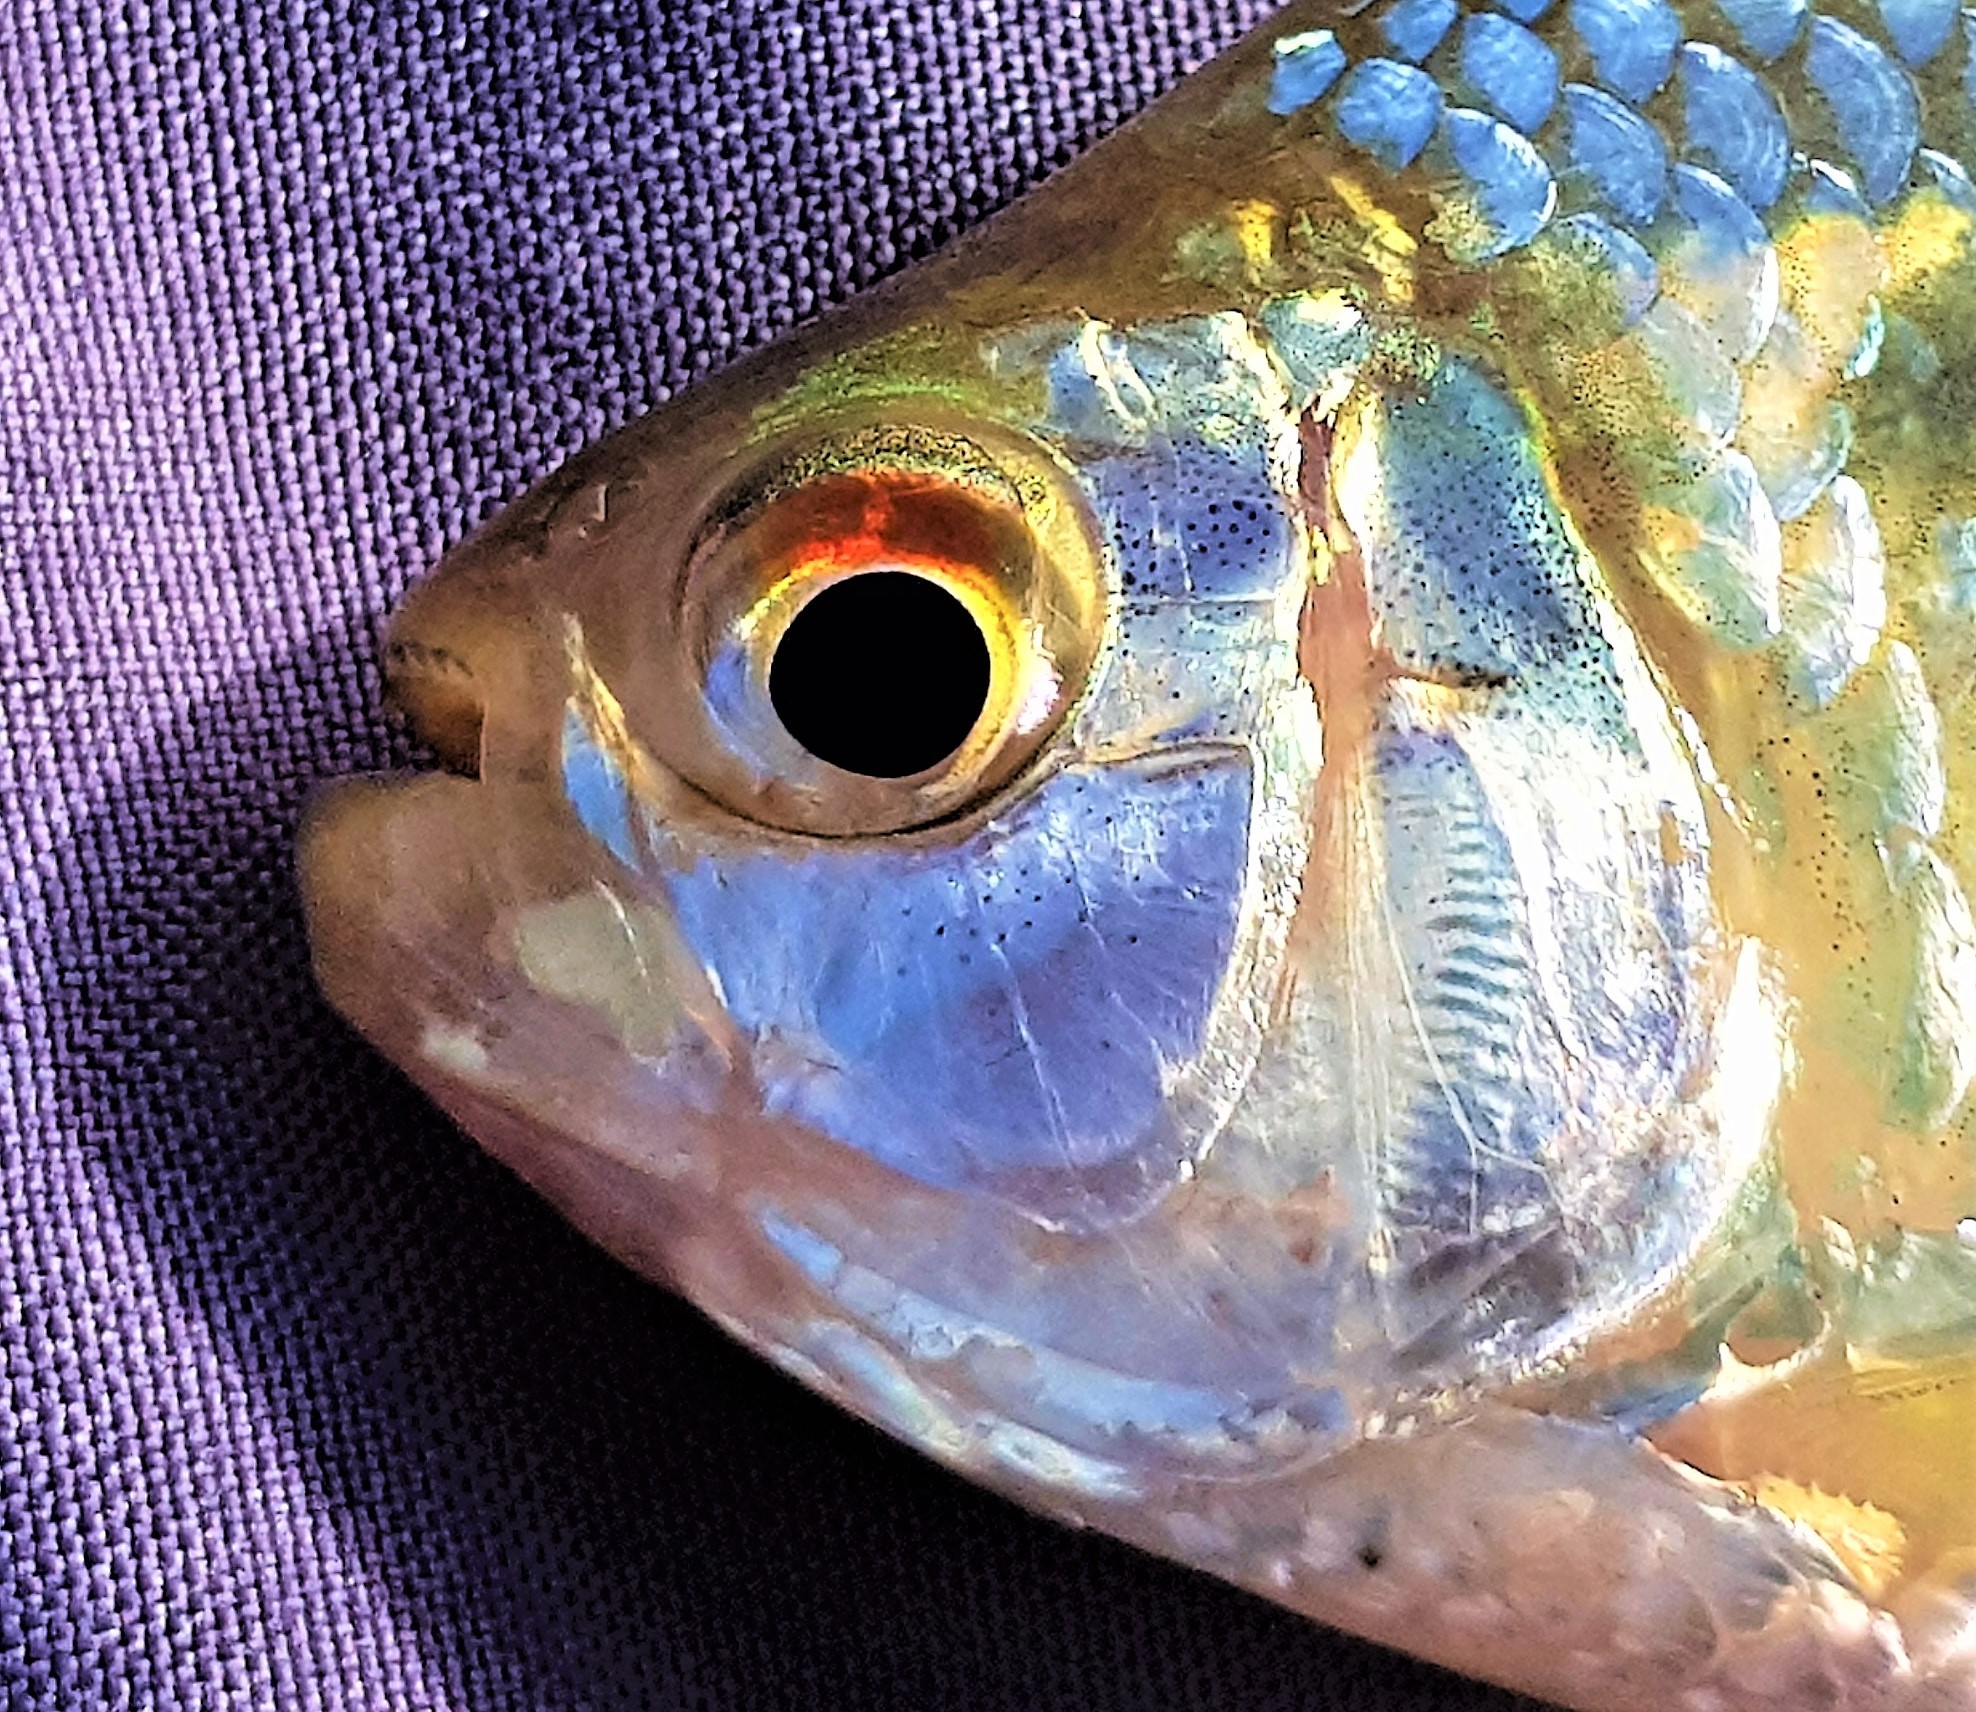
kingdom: Animalia
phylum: Chordata
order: Characiformes
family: Characidae
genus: Astyanax
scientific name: Astyanax bimaculatus
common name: Twospot astyanax
